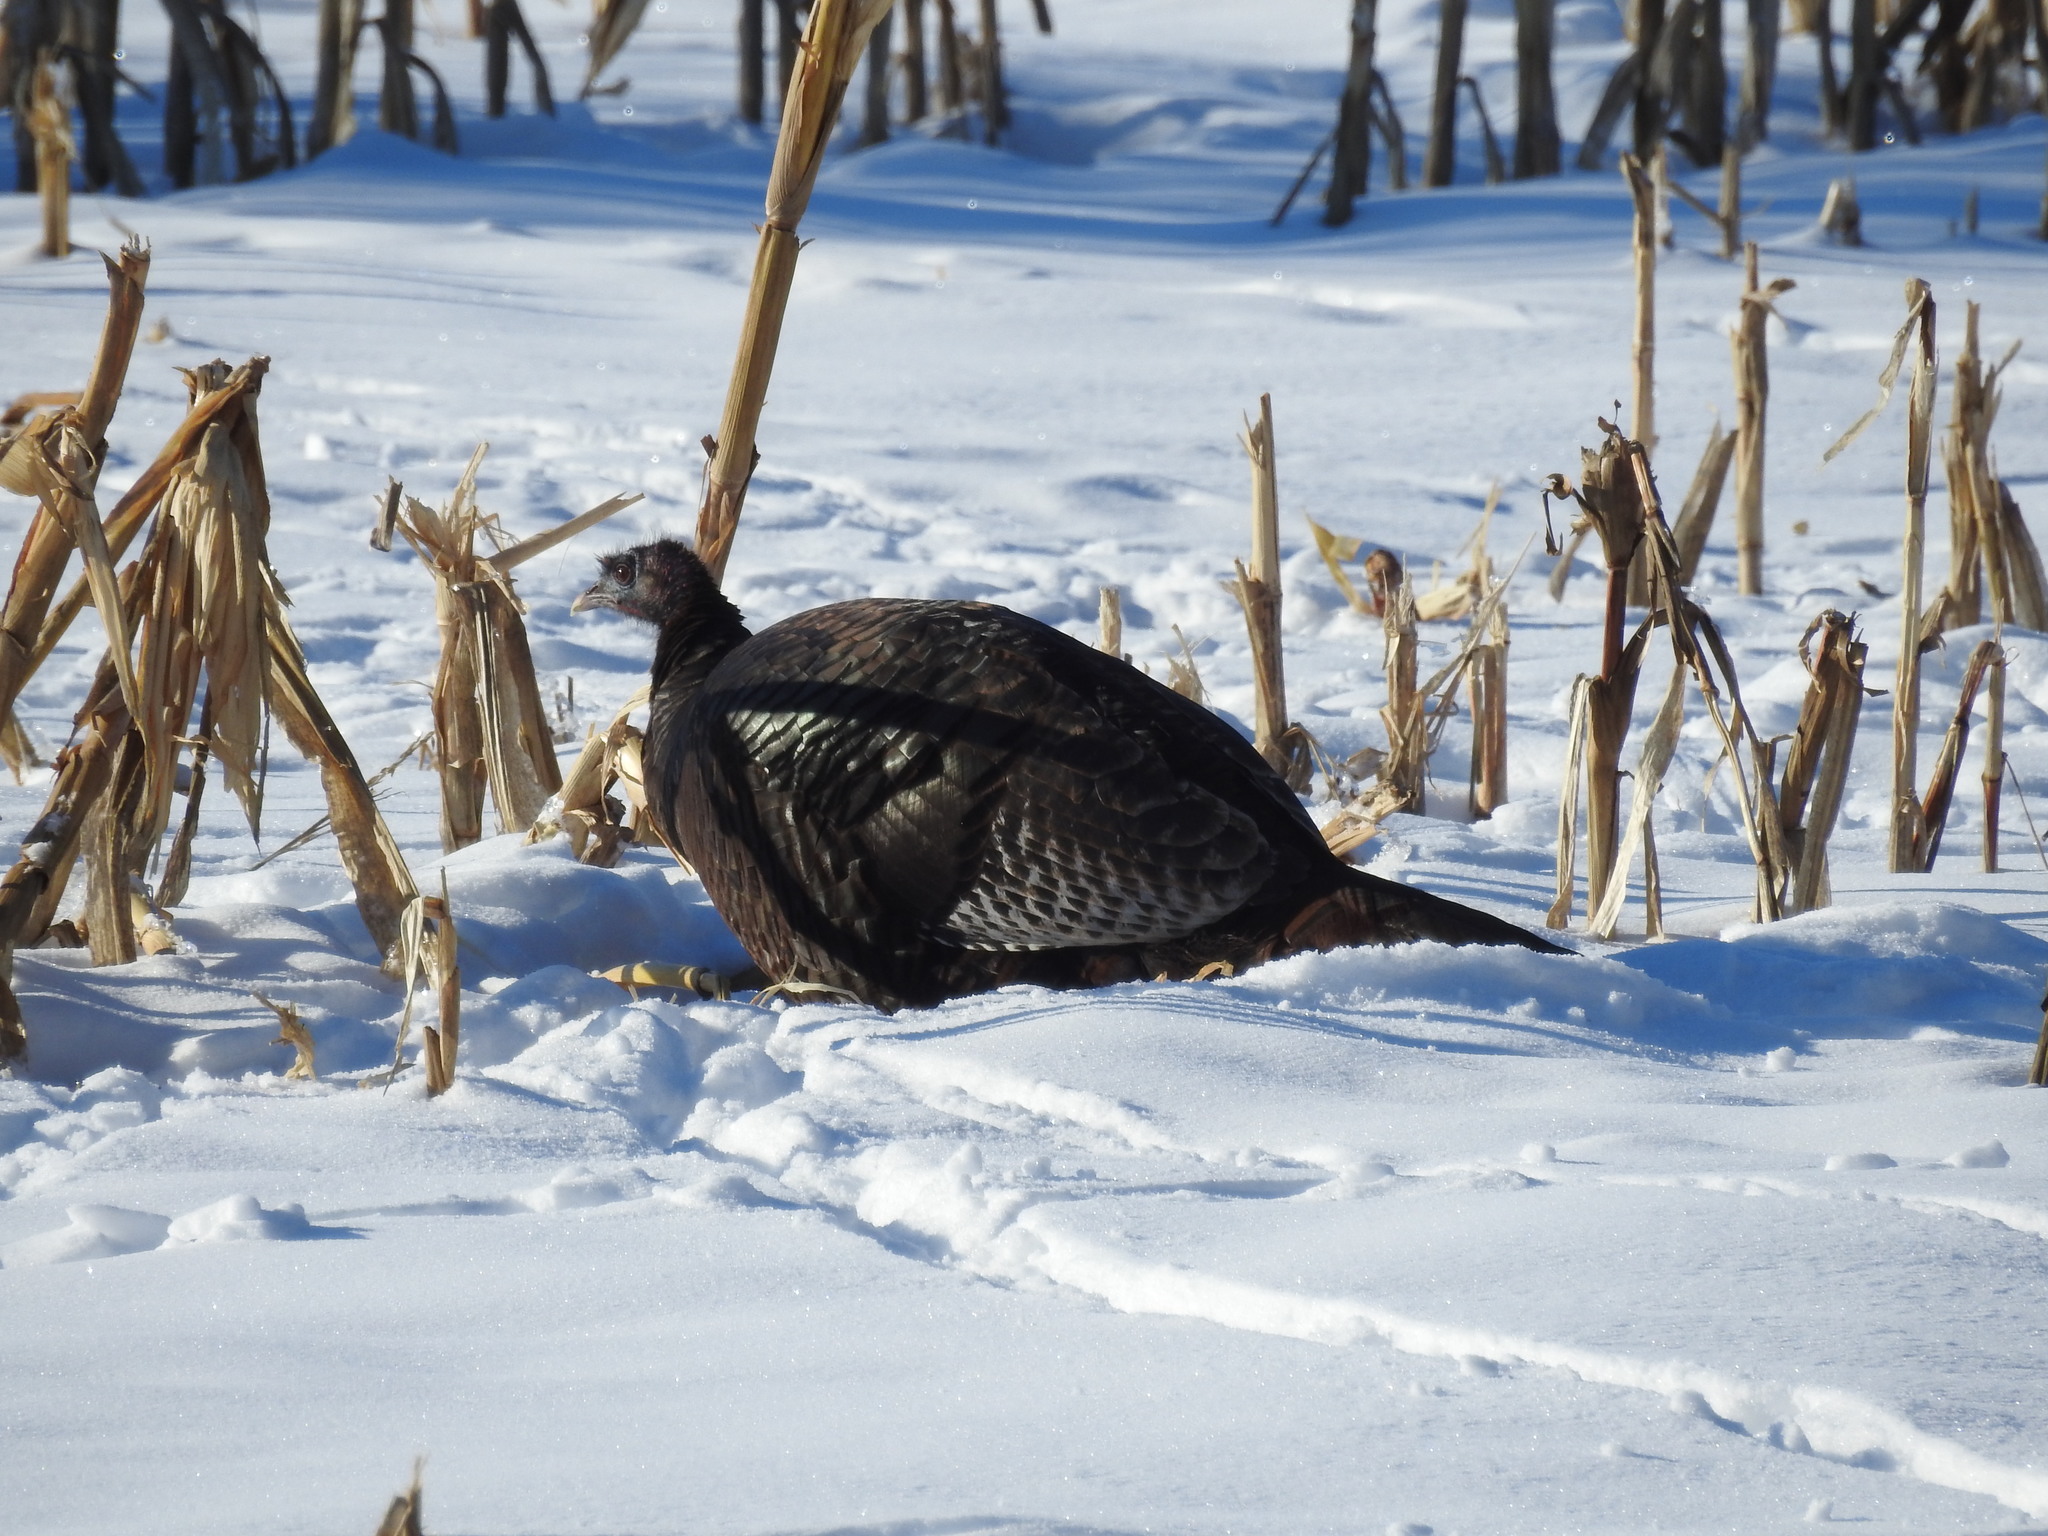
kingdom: Animalia
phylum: Chordata
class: Aves
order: Galliformes
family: Phasianidae
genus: Meleagris
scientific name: Meleagris gallopavo
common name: Wild turkey
